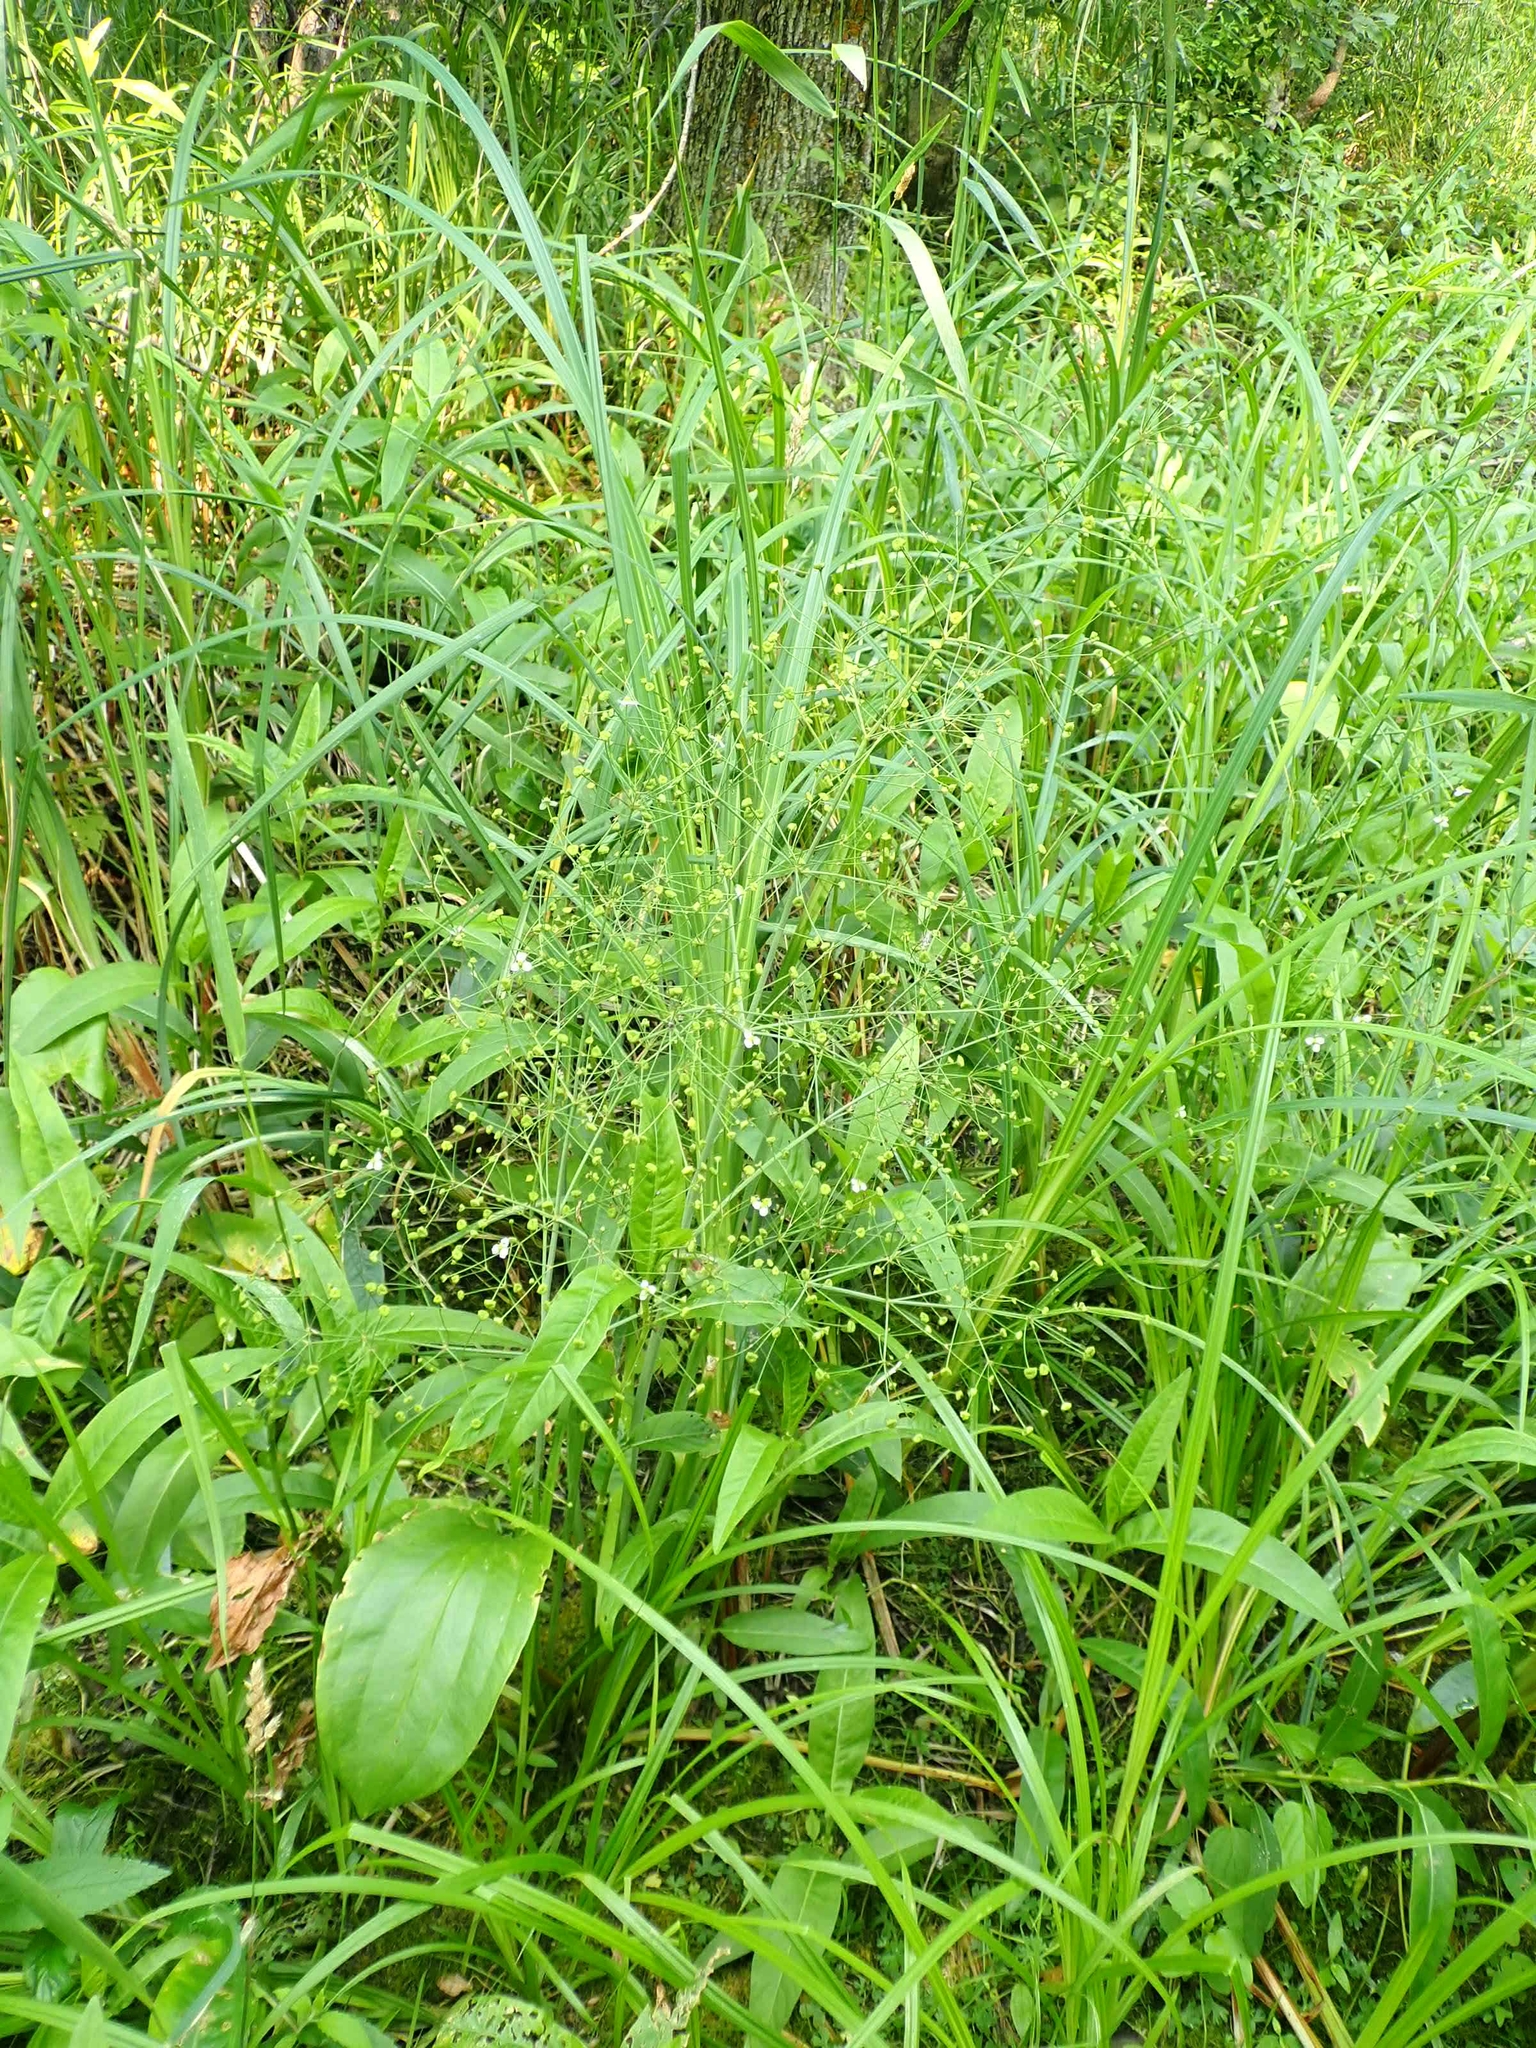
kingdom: Plantae
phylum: Tracheophyta
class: Liliopsida
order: Alismatales
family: Alismataceae
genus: Alisma
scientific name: Alisma triviale
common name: Northern water-plantain
